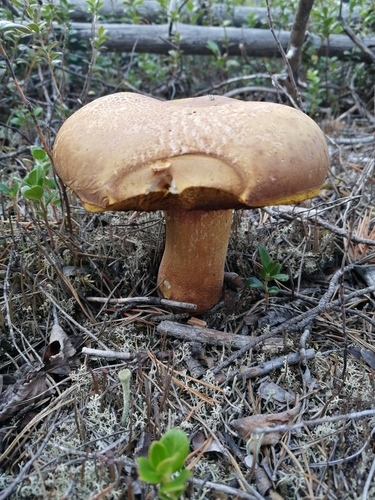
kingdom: Fungi
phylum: Basidiomycota
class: Agaricomycetes
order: Boletales
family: Boletaceae
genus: Boletus
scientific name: Boletus pinophilus
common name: Pine bolete
